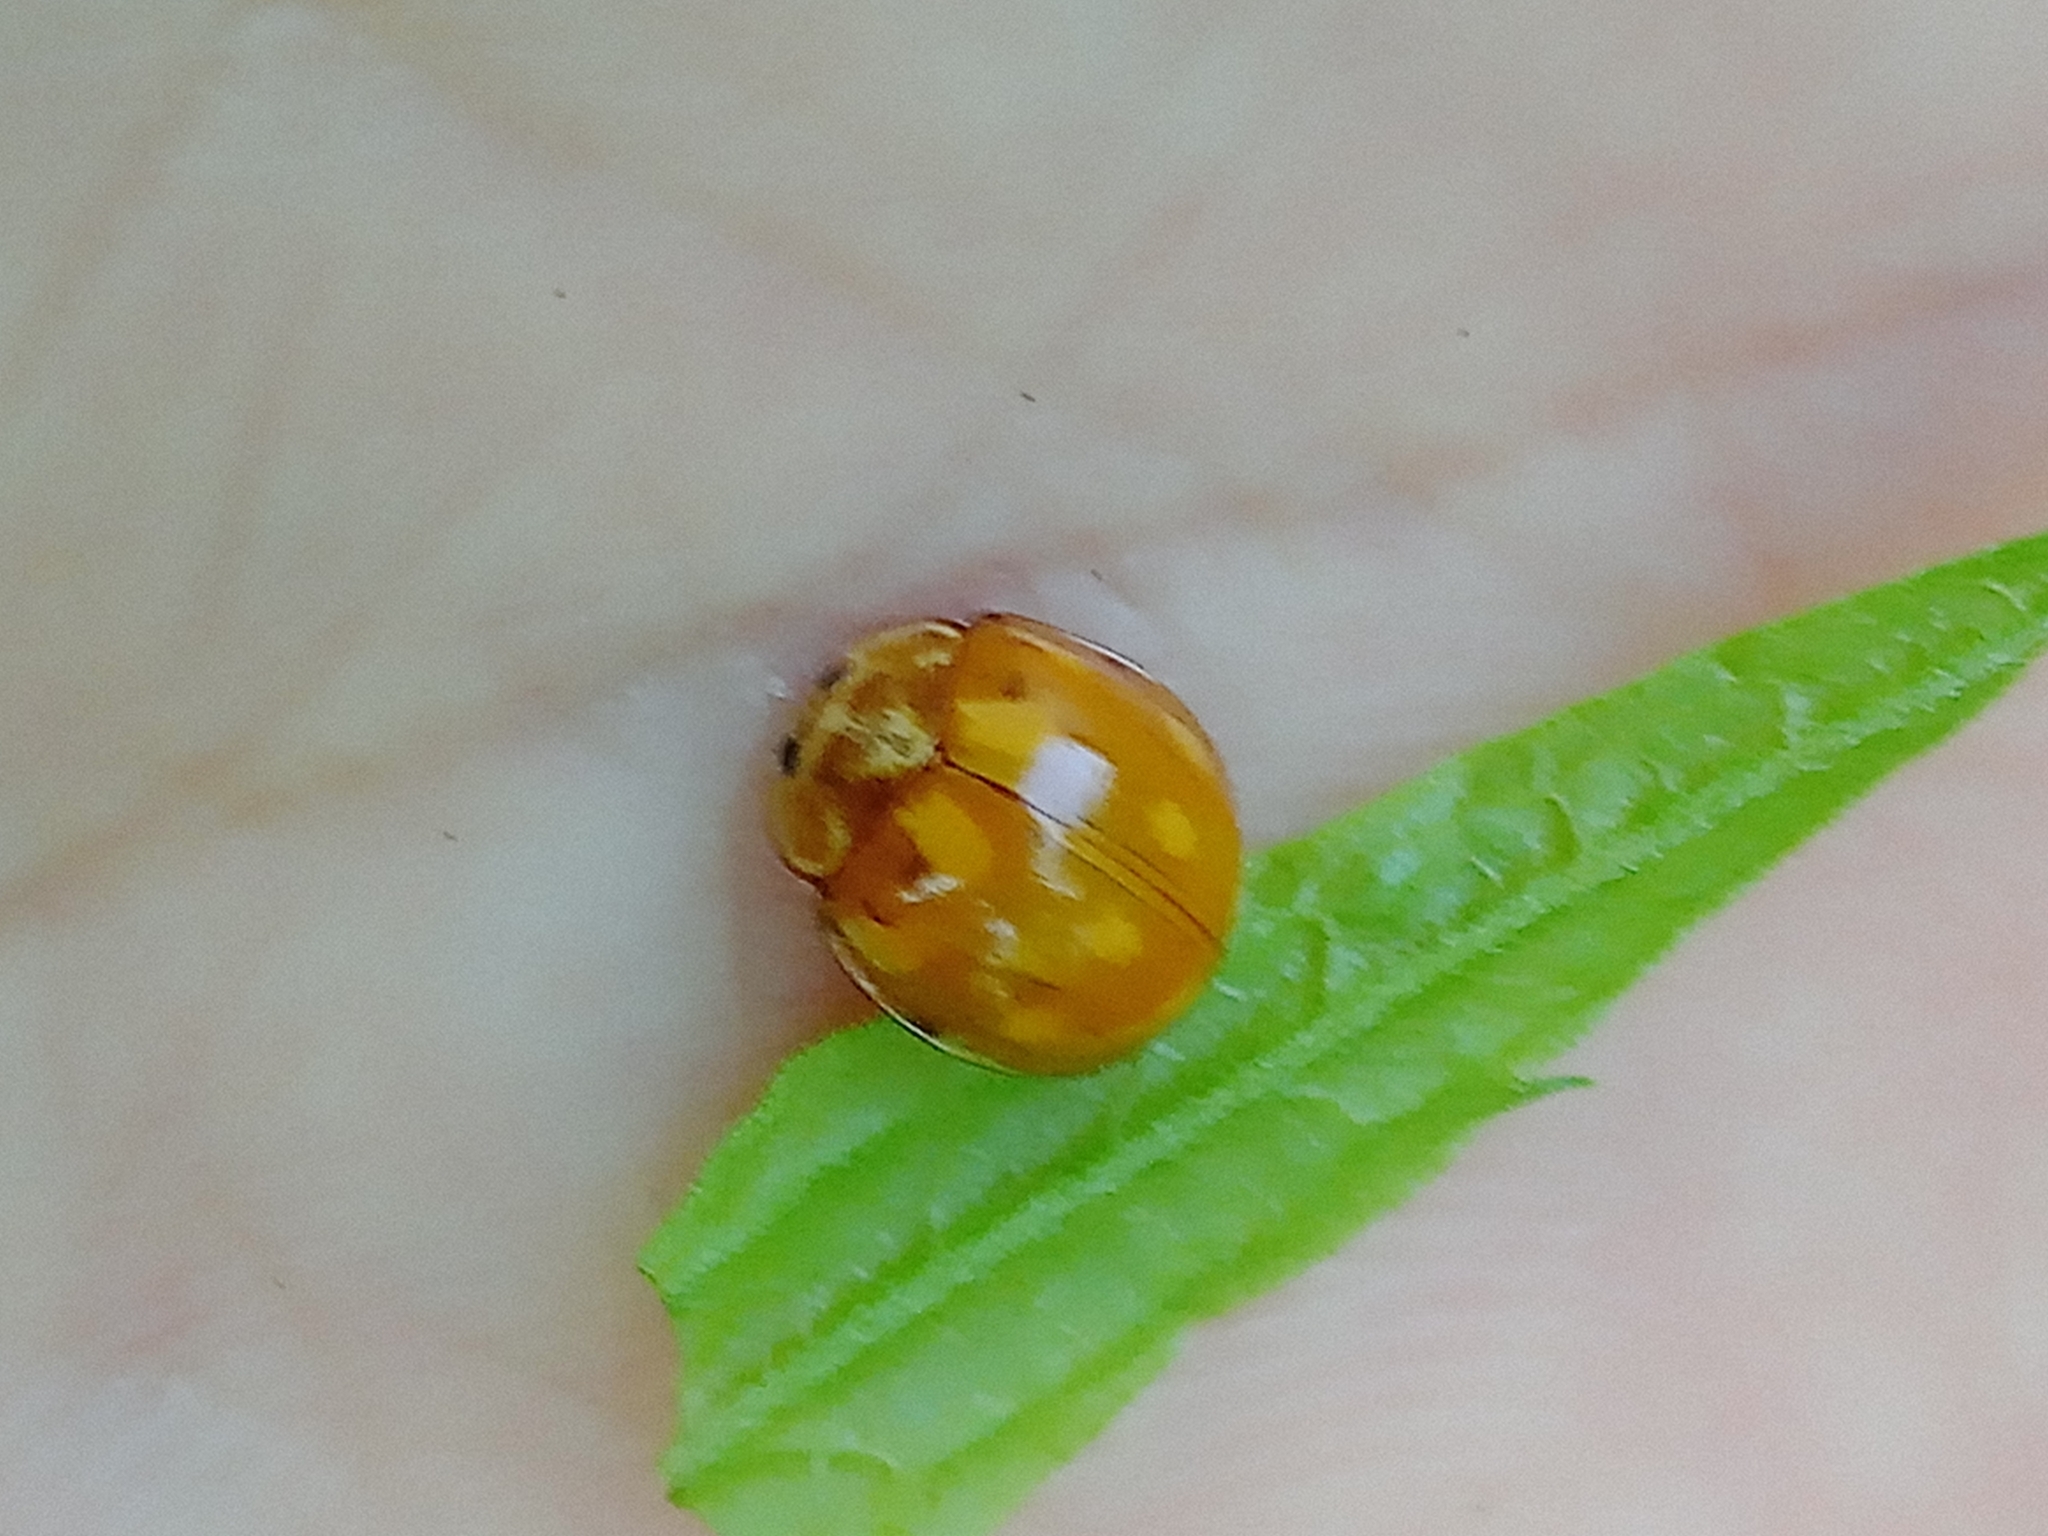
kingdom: Animalia
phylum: Arthropoda
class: Insecta
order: Coleoptera
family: Coccinellidae
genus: Calvia
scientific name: Calvia decemguttata
